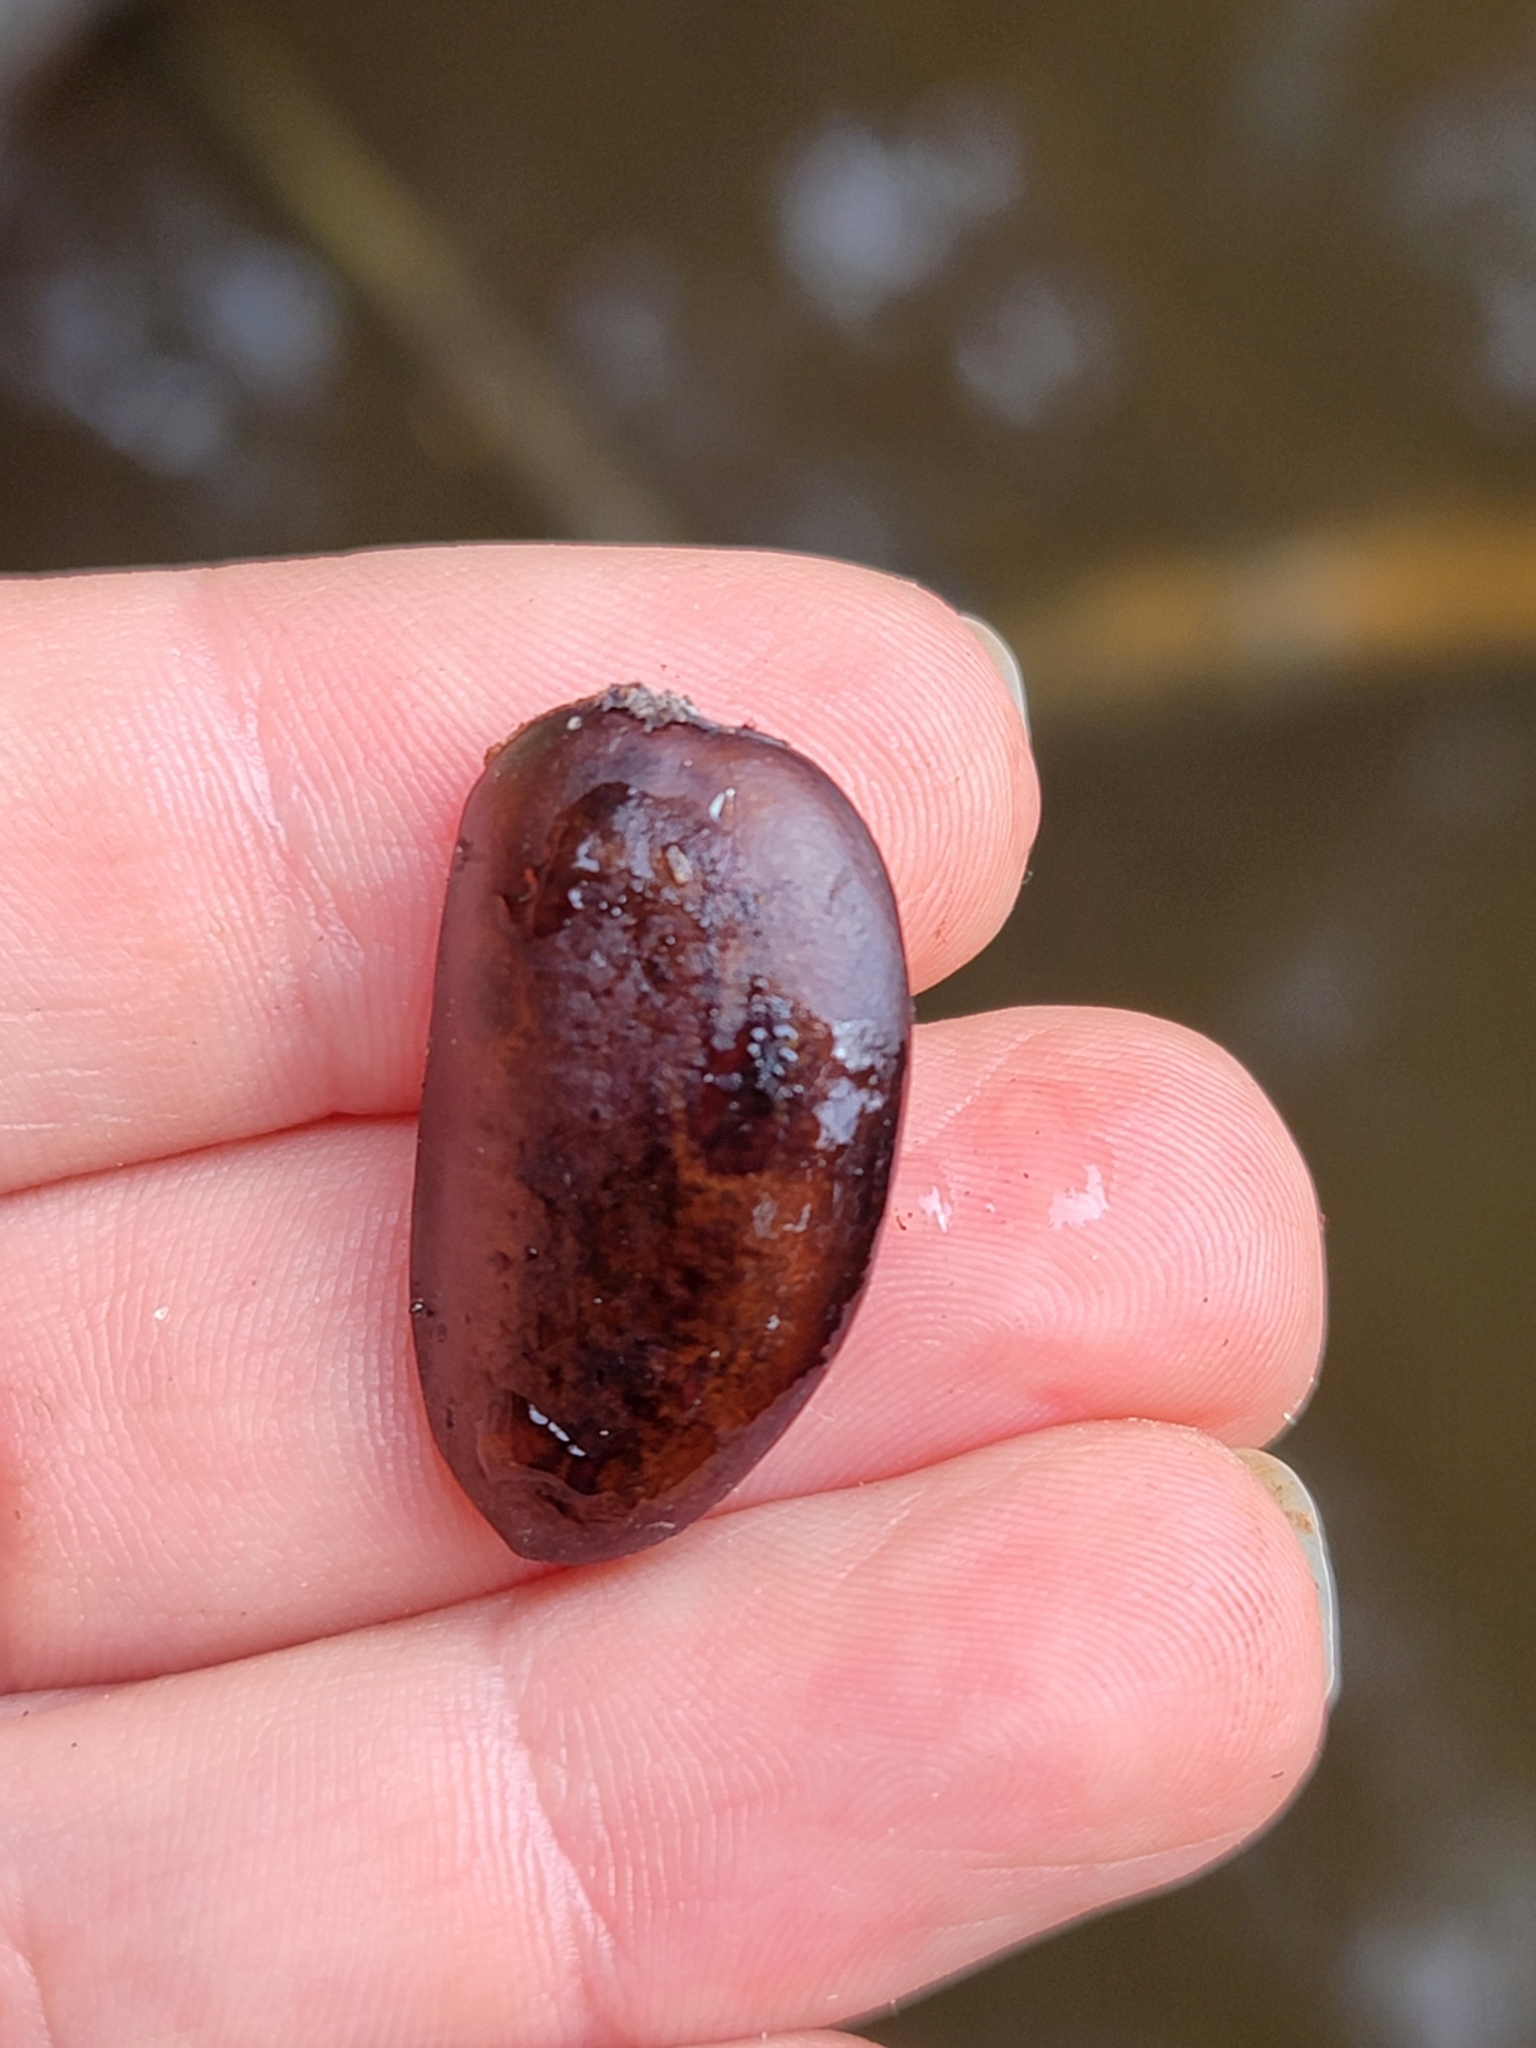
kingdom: Plantae
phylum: Tracheophyta
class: Magnoliopsida
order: Magnoliales
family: Annonaceae
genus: Asimina
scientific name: Asimina triloba
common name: Dog-banana
